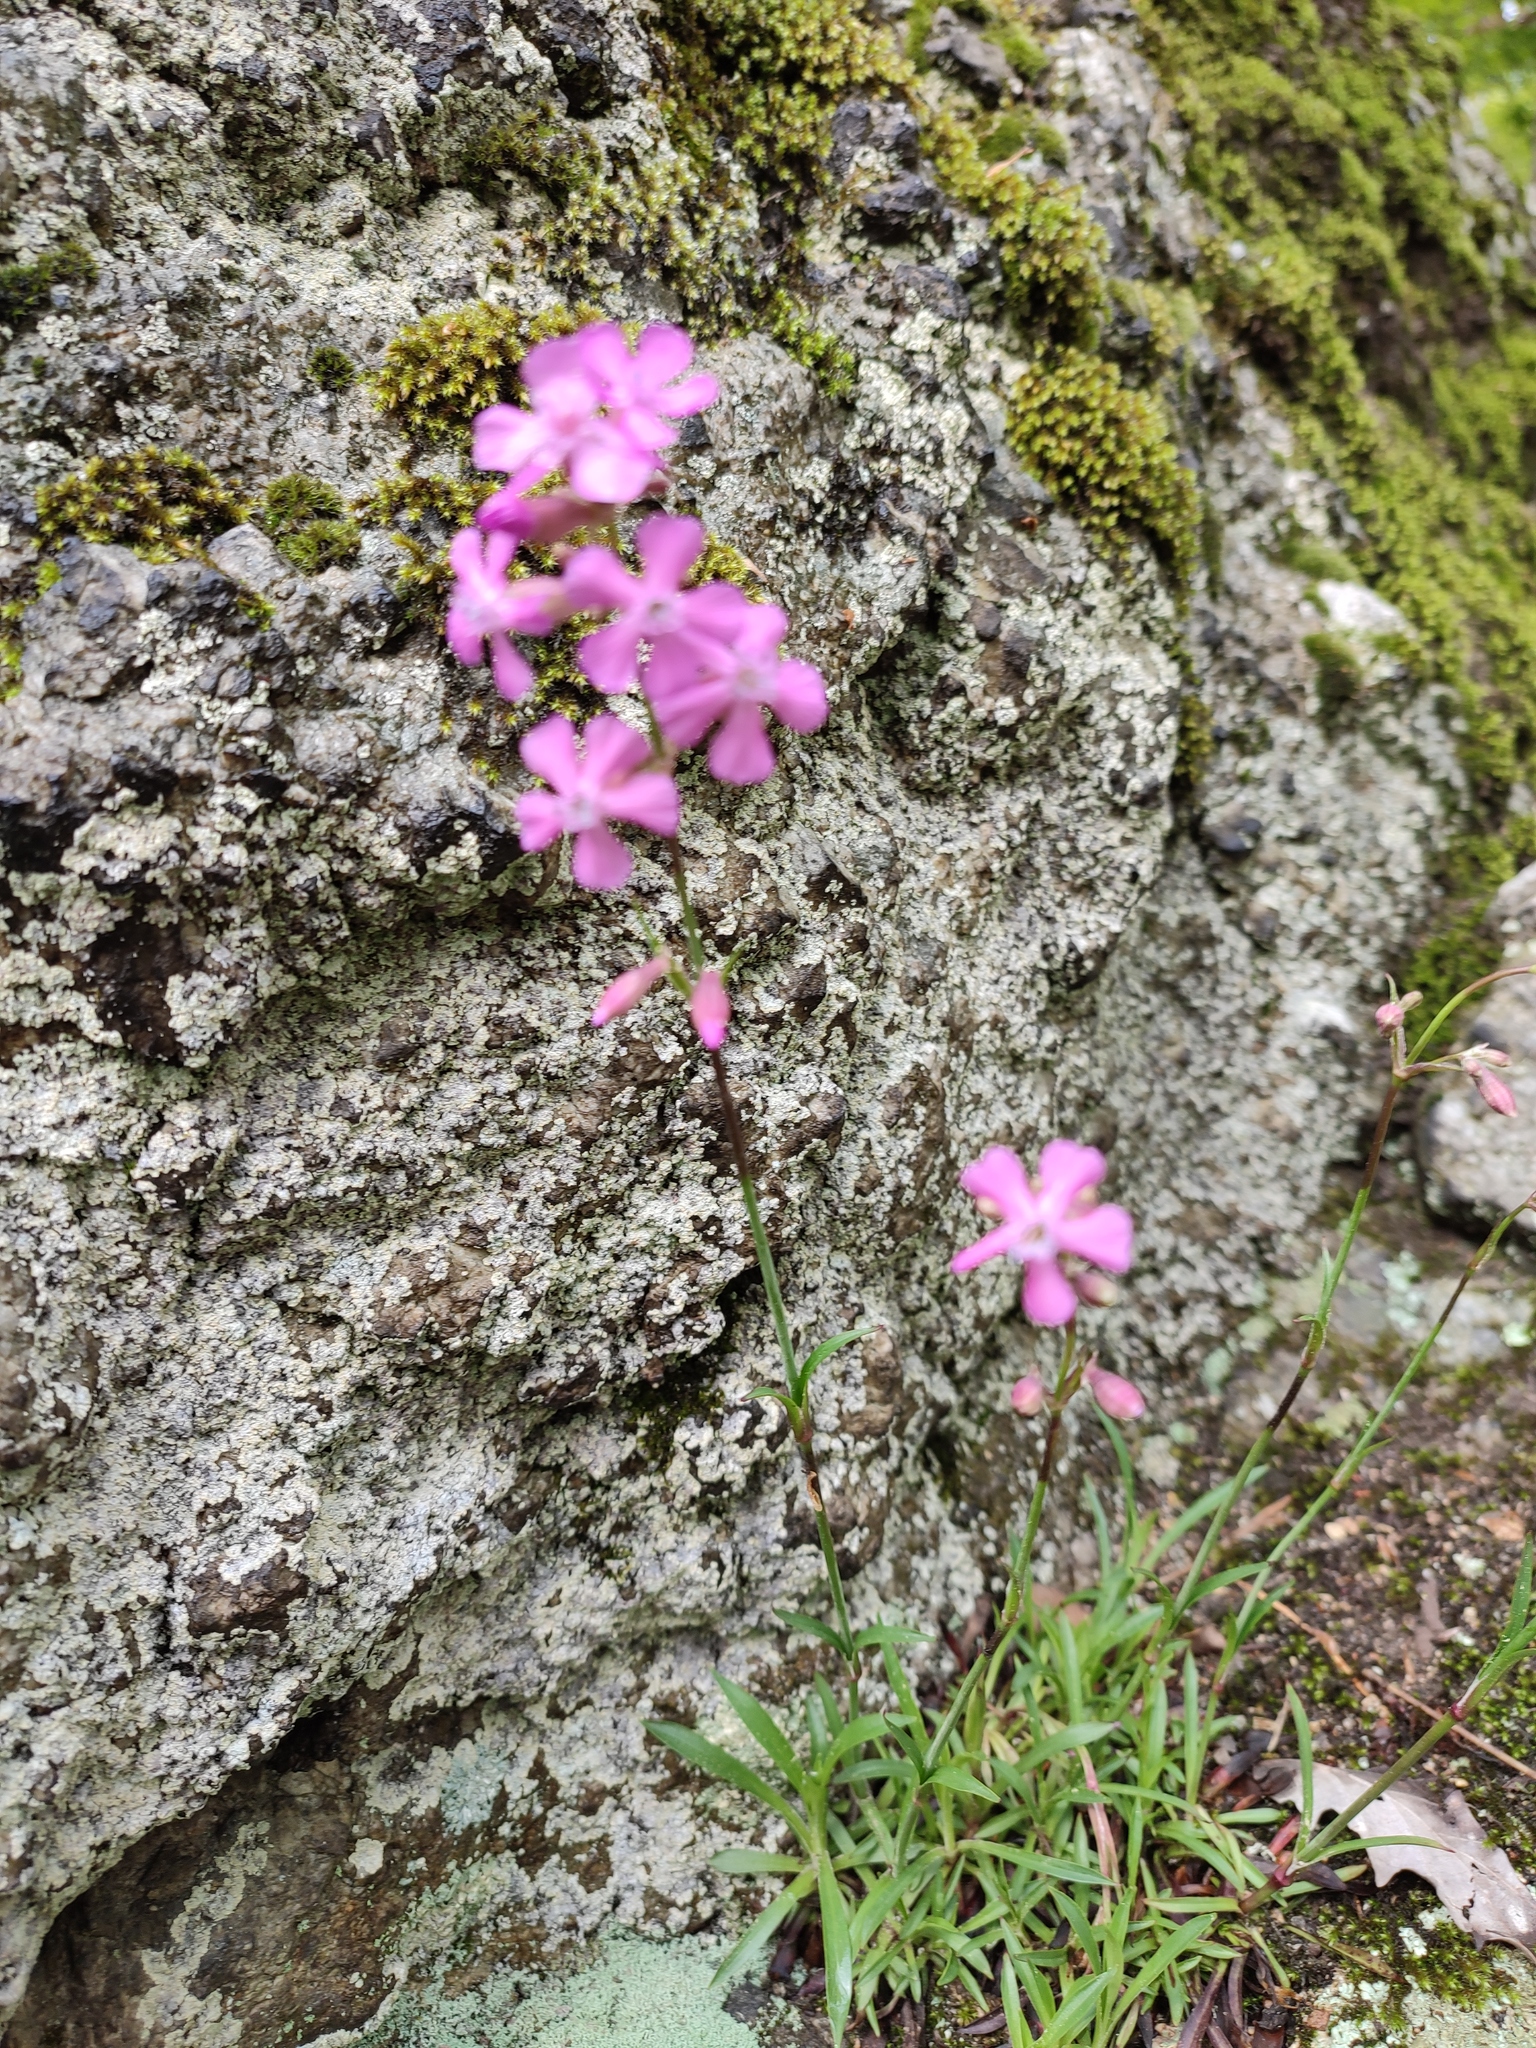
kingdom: Plantae
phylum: Tracheophyta
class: Magnoliopsida
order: Caryophyllales
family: Caryophyllaceae
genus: Viscaria
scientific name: Viscaria vulgaris
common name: Clammy campion
